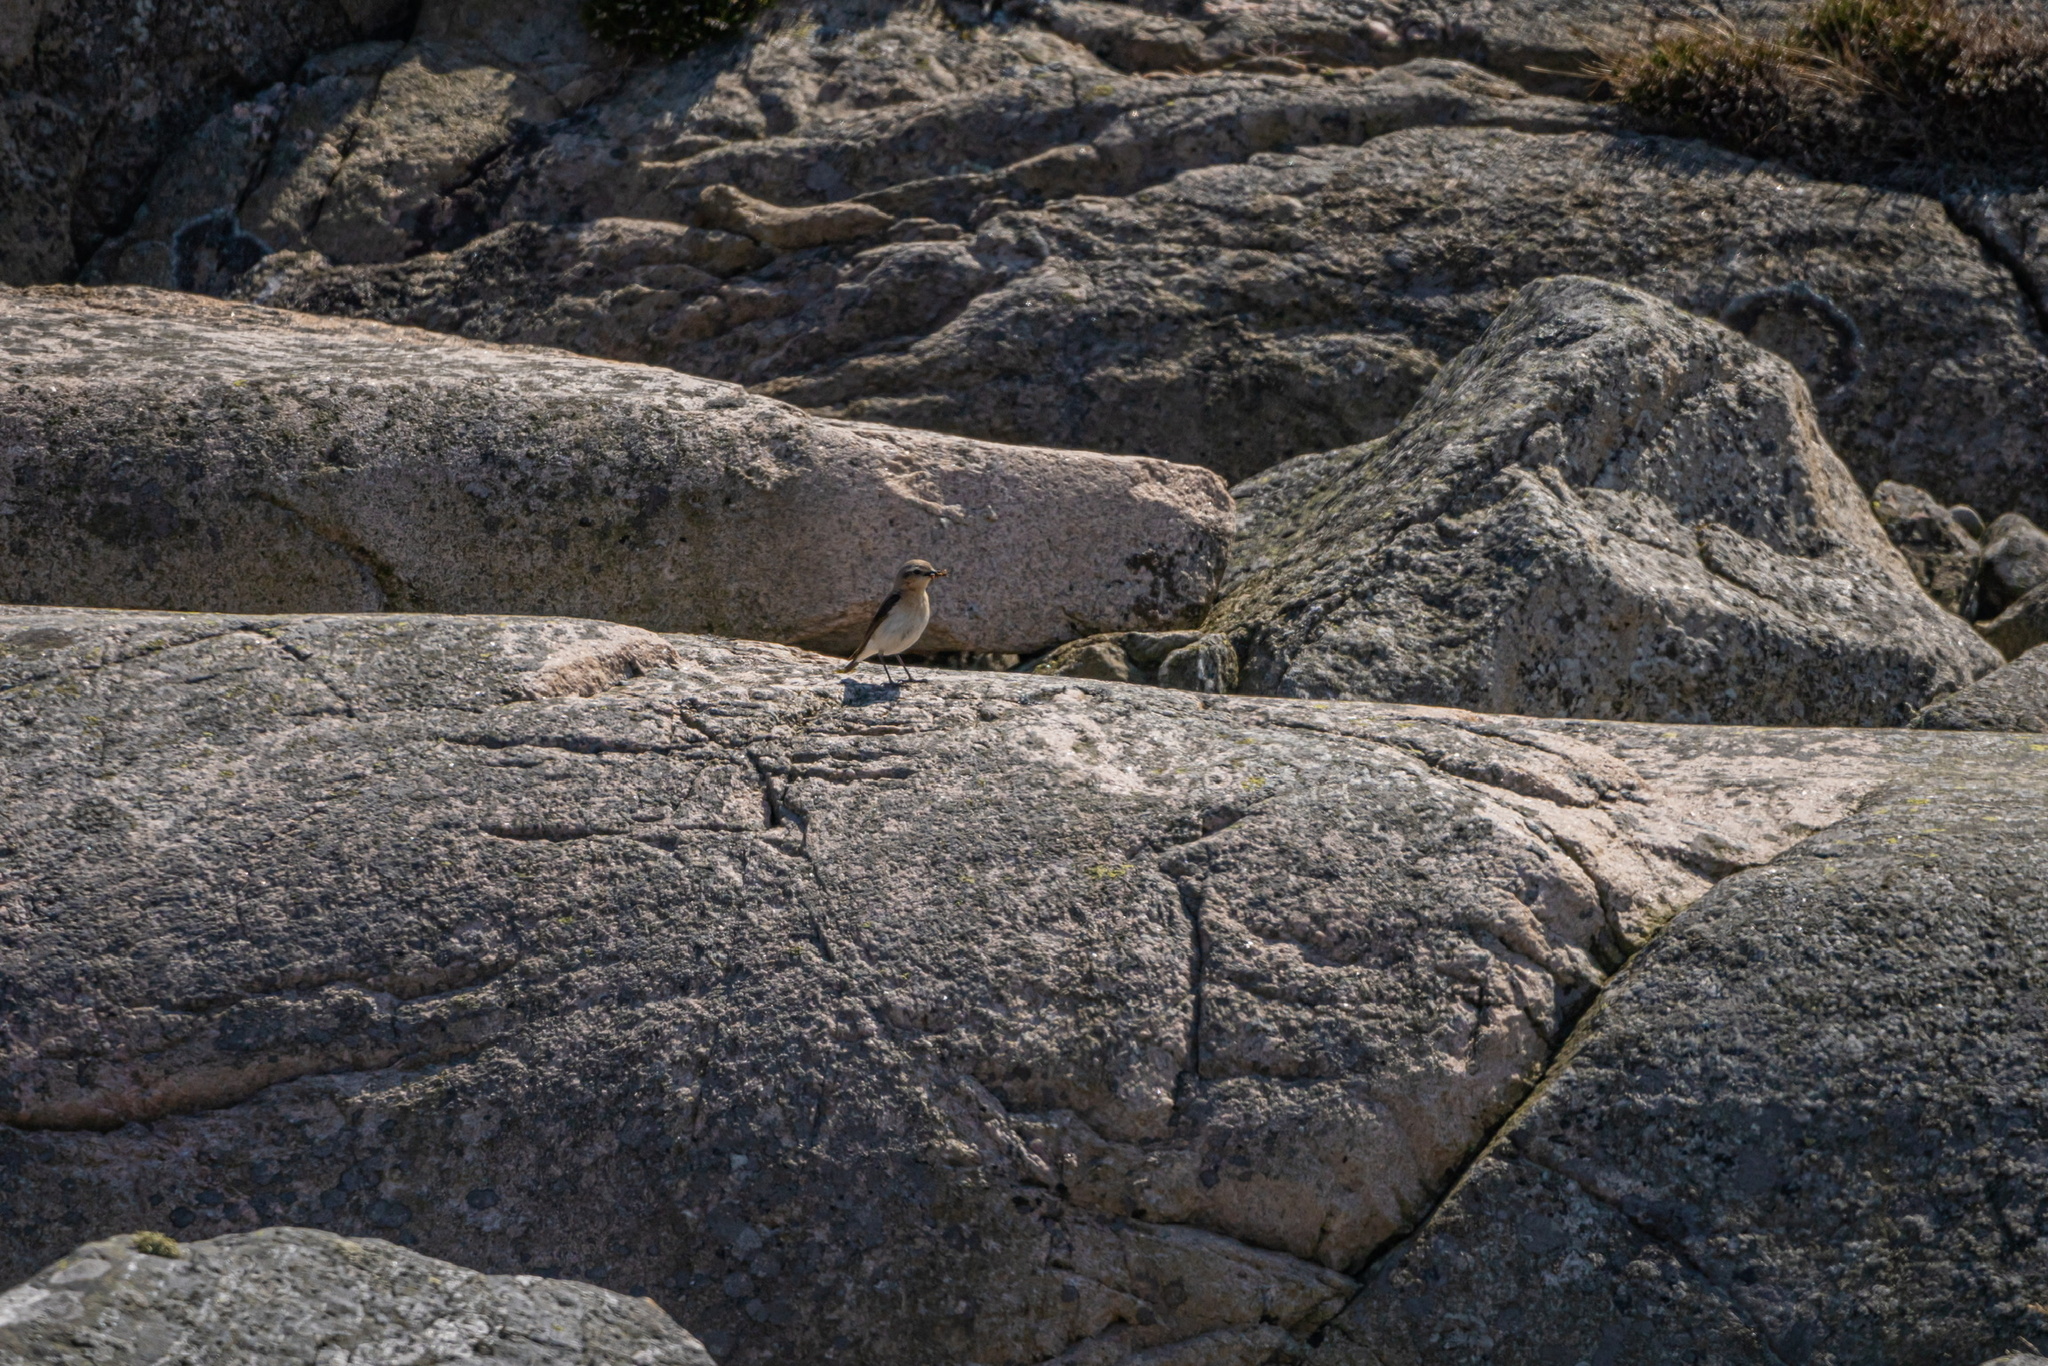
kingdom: Animalia
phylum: Chordata
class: Aves
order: Passeriformes
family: Muscicapidae
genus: Oenanthe
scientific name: Oenanthe oenanthe
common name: Northern wheatear
